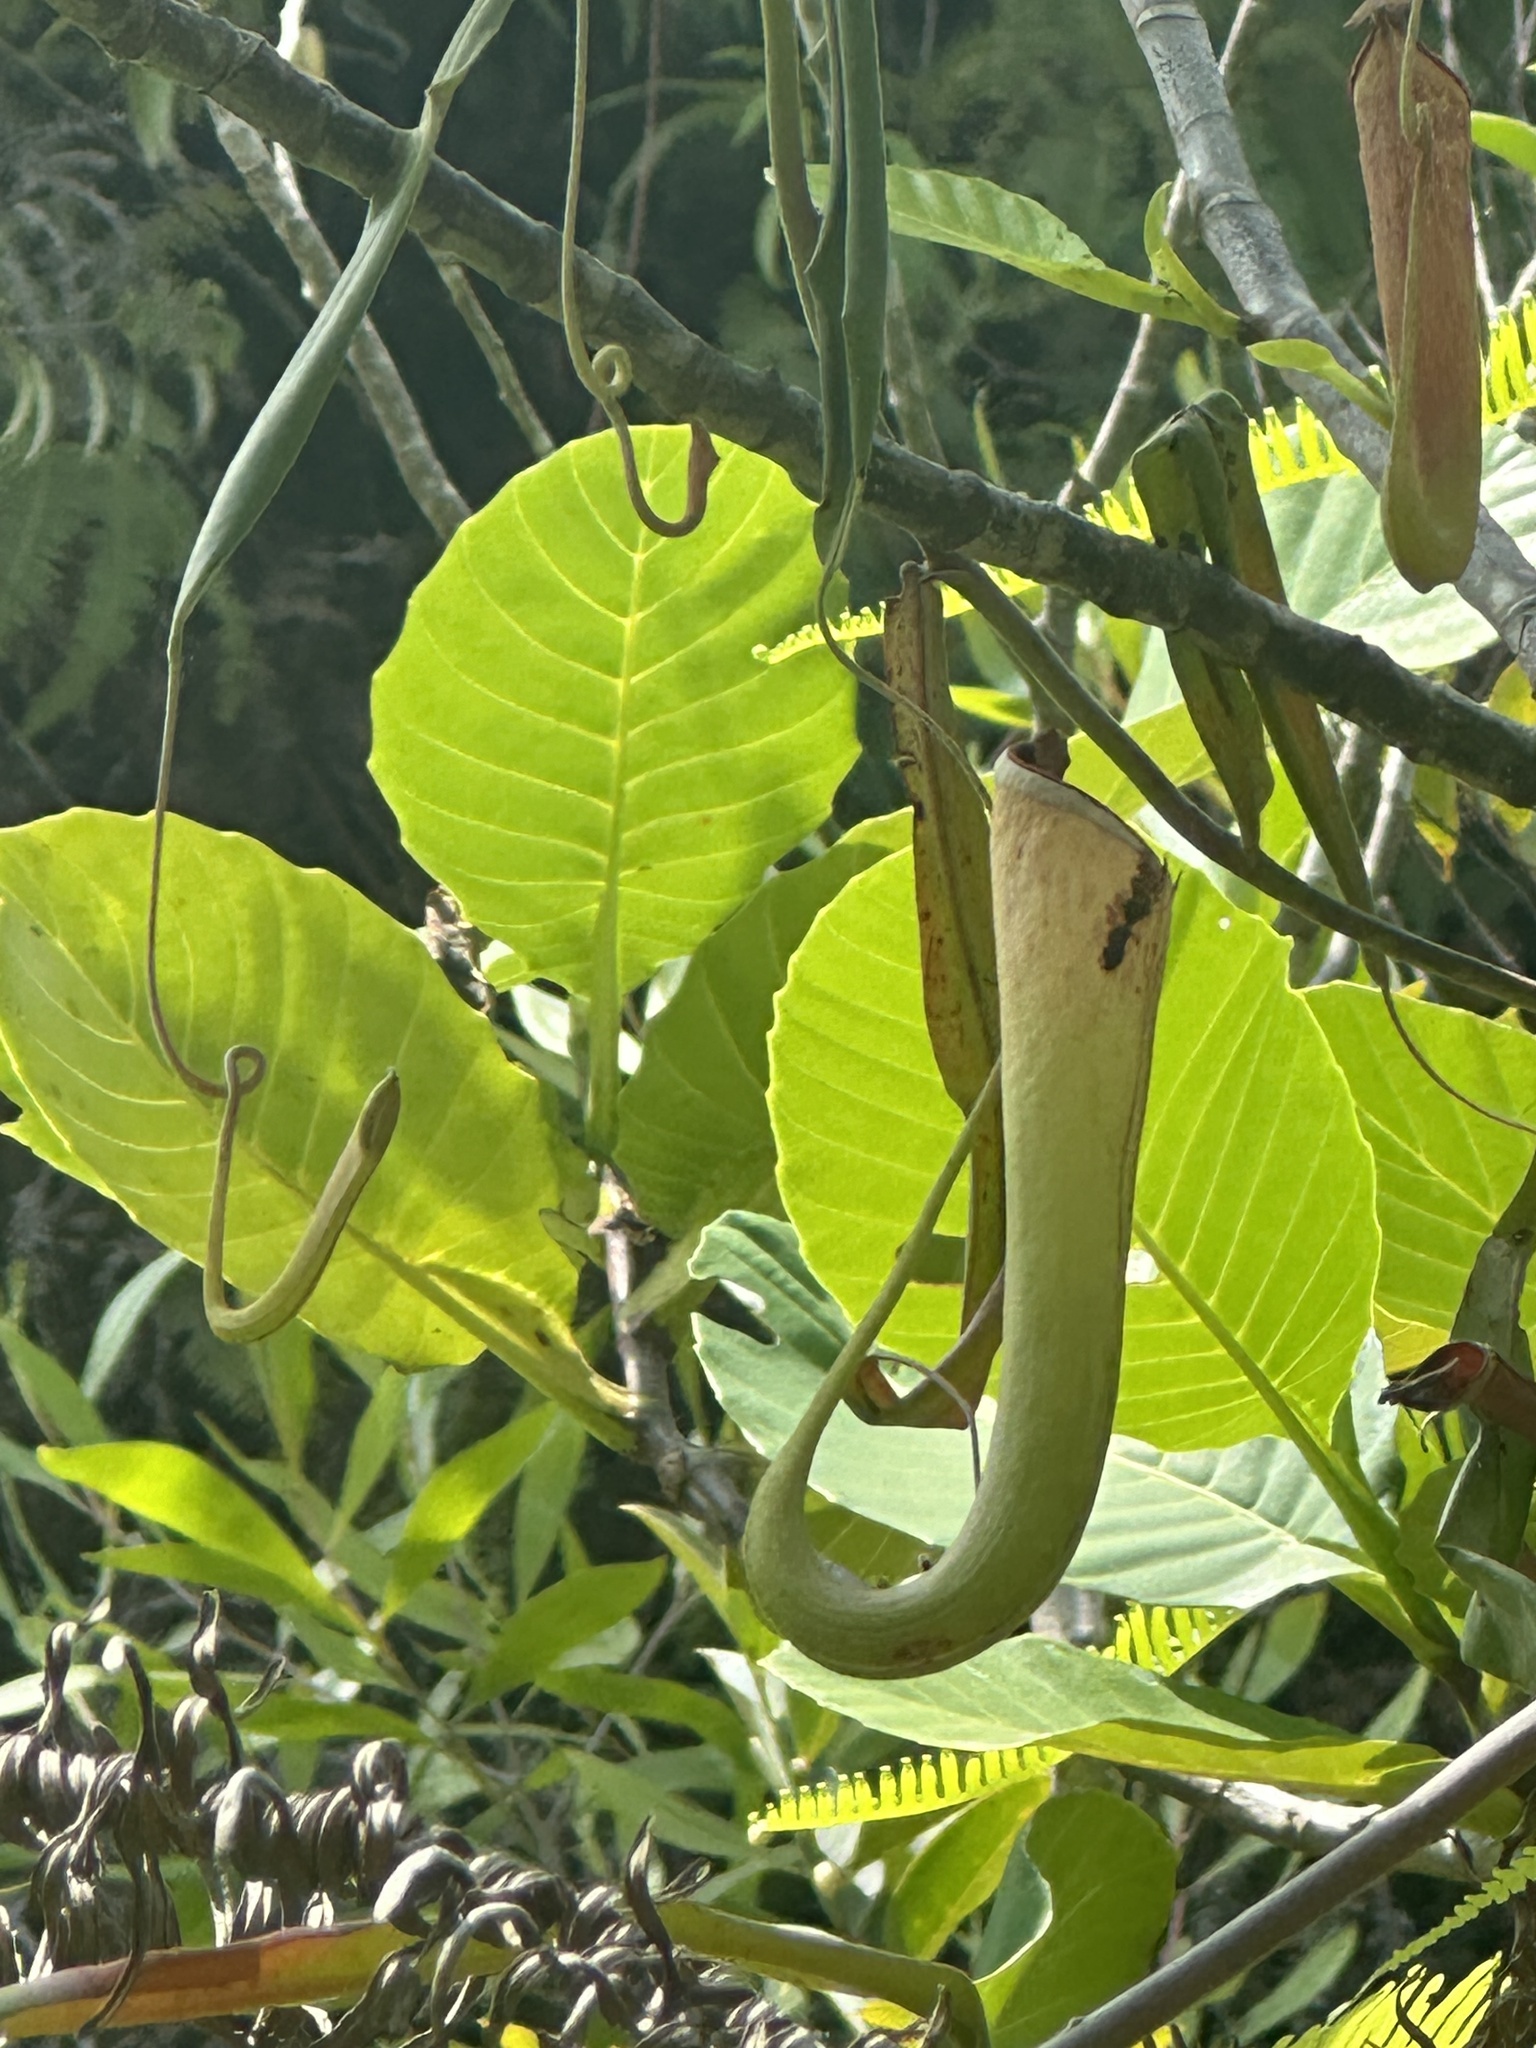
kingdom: Plantae
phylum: Tracheophyta
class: Magnoliopsida
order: Caryophyllales
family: Nepenthaceae
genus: Nepenthes
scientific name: Nepenthes albomarginata
